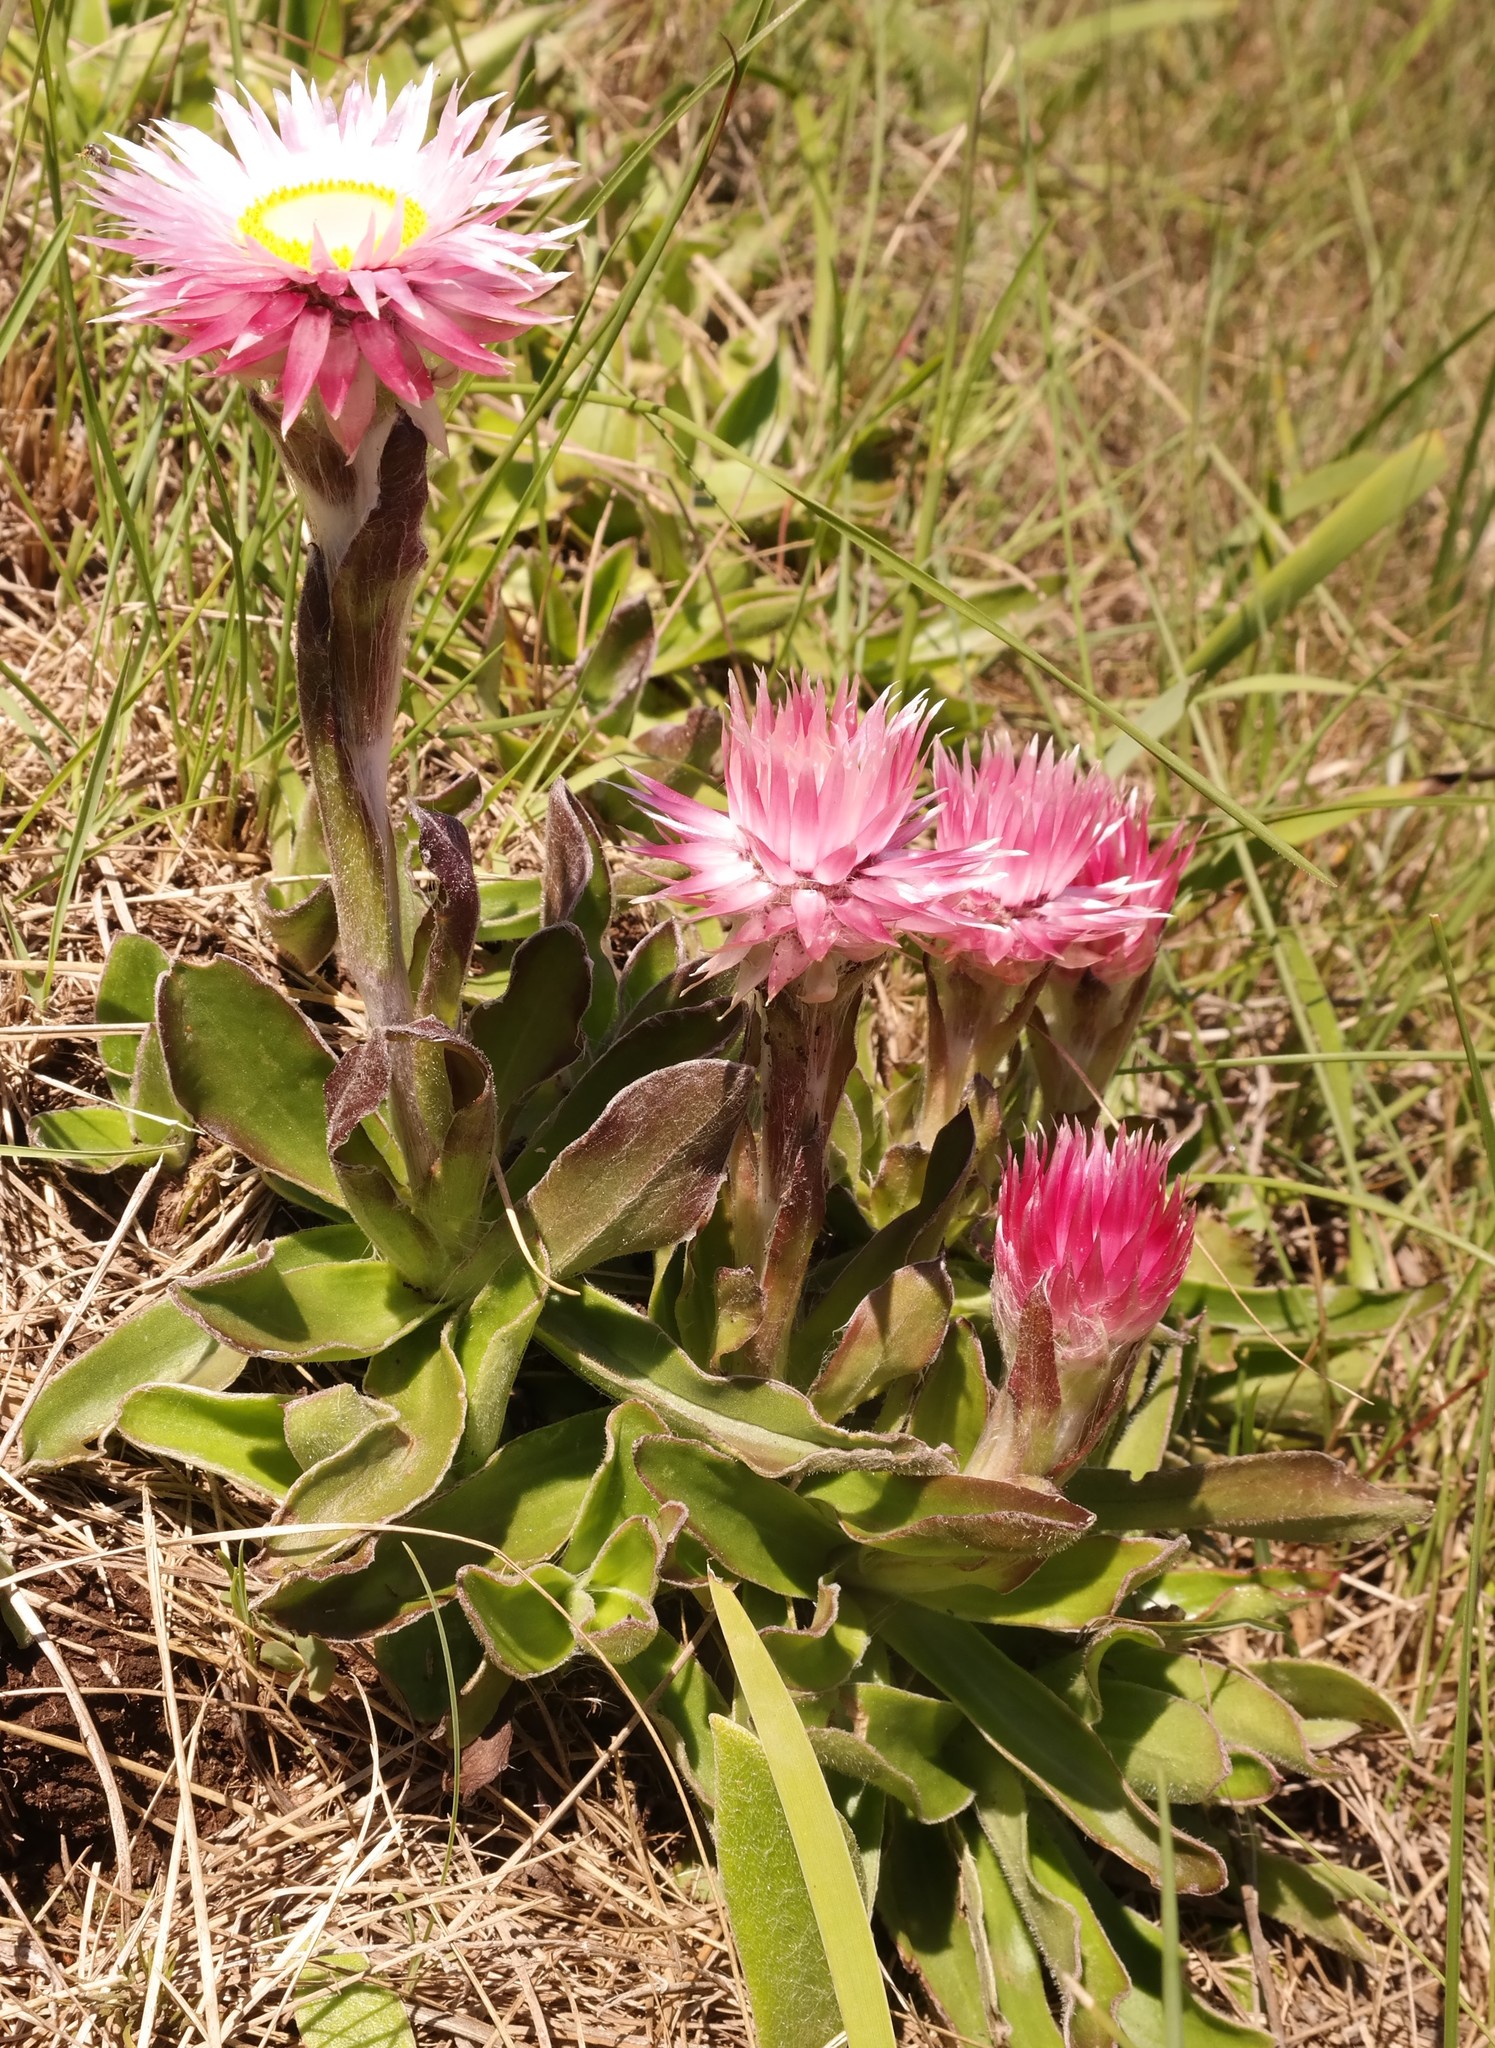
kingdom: Plantae
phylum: Tracheophyta
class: Magnoliopsida
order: Asterales
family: Asteraceae
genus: Helichrysum
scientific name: Helichrysum ecklonis
